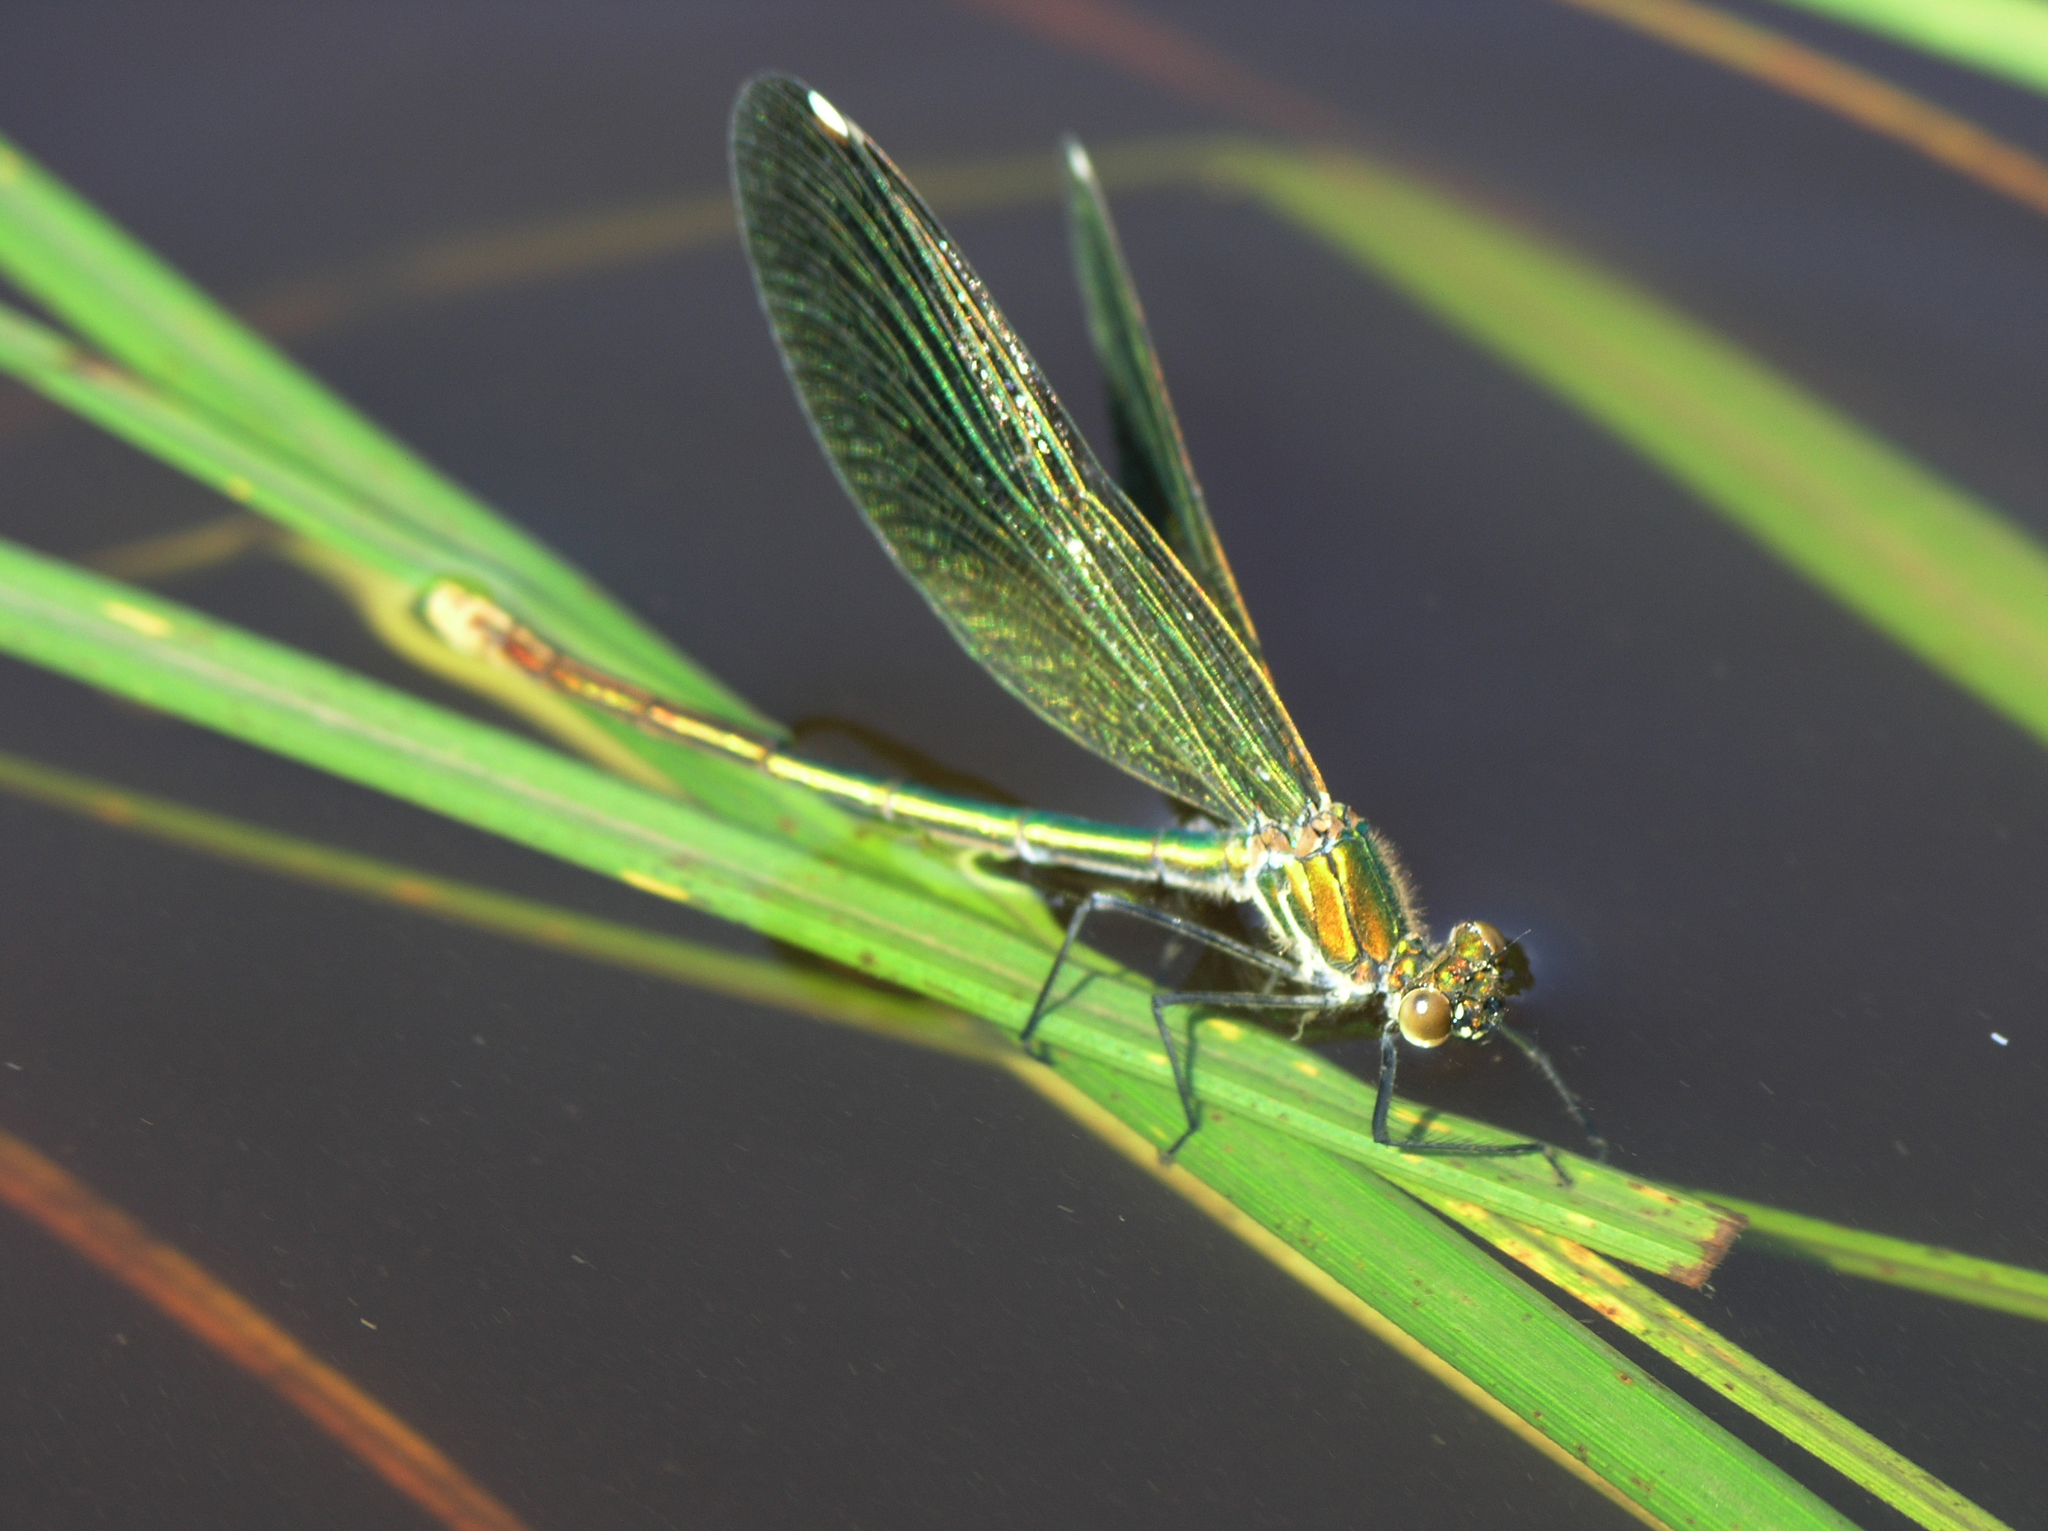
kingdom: Animalia
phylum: Arthropoda
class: Insecta
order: Odonata
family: Calopterygidae
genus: Calopteryx
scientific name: Calopteryx splendens
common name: Banded demoiselle
